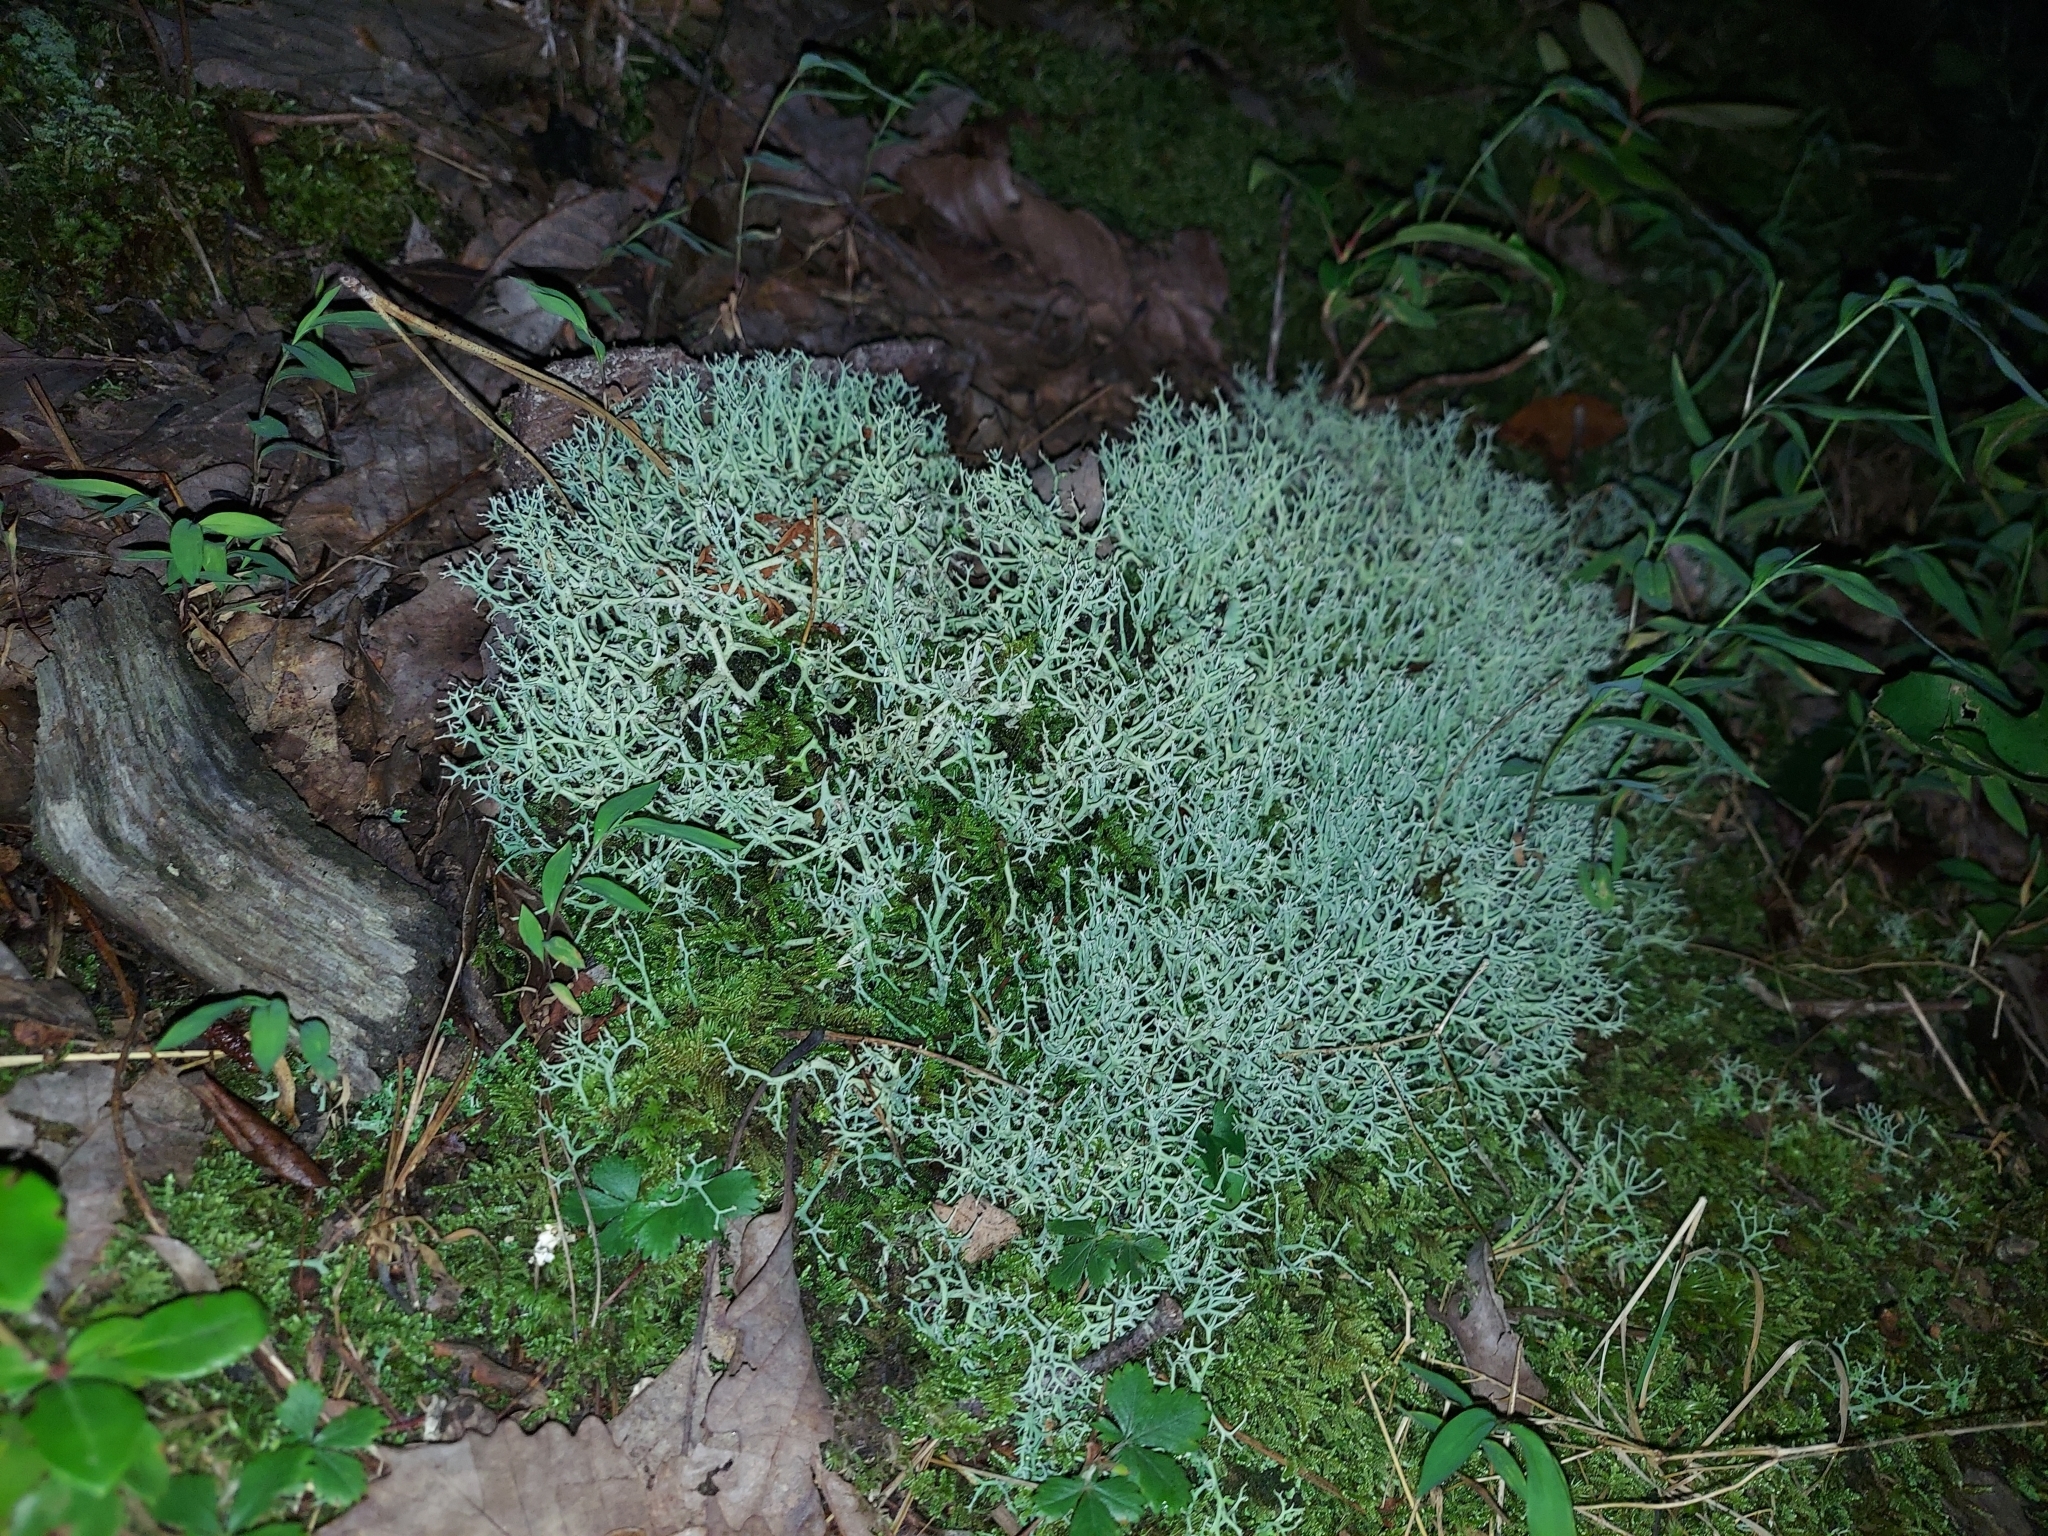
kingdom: Fungi
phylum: Ascomycota
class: Lecanoromycetes
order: Lecanorales
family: Cladoniaceae
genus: Cladonia
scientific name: Cladonia furcata
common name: Many-forked cladonia
